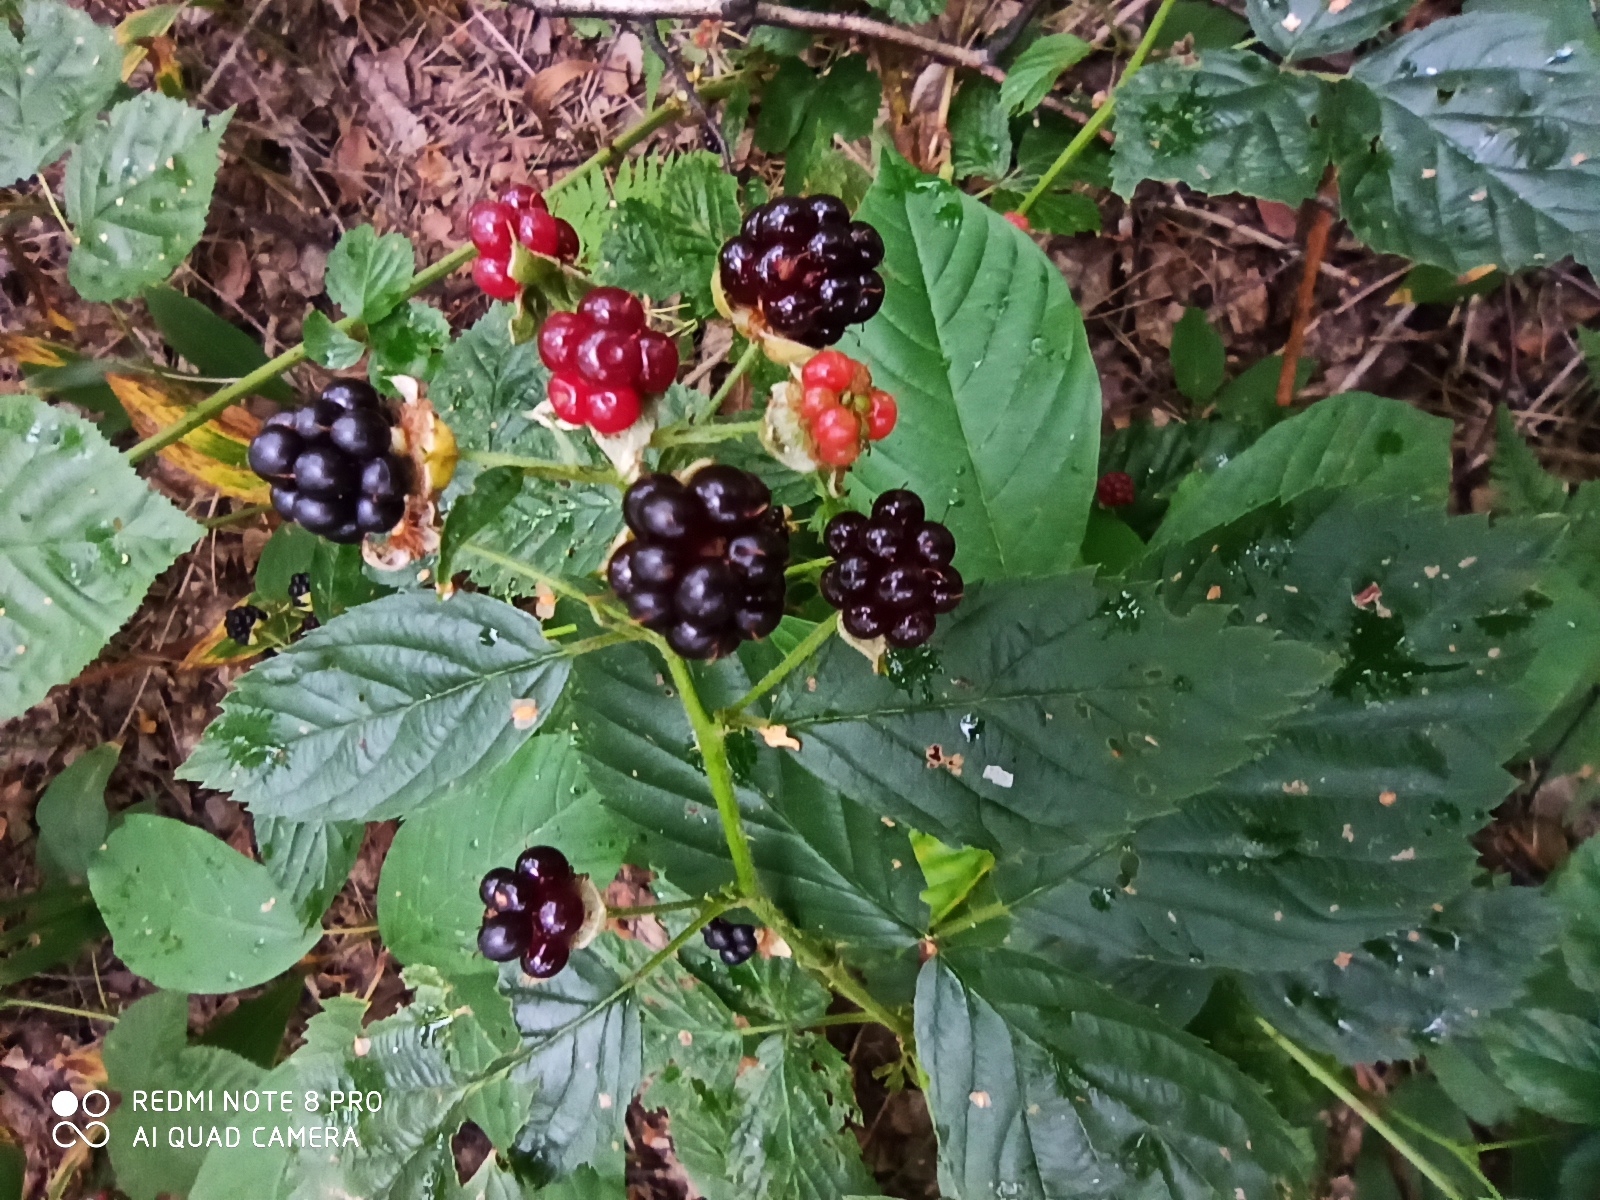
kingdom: Plantae
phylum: Tracheophyta
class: Magnoliopsida
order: Rosales
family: Rosaceae
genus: Rubus
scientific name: Rubus polonicus
